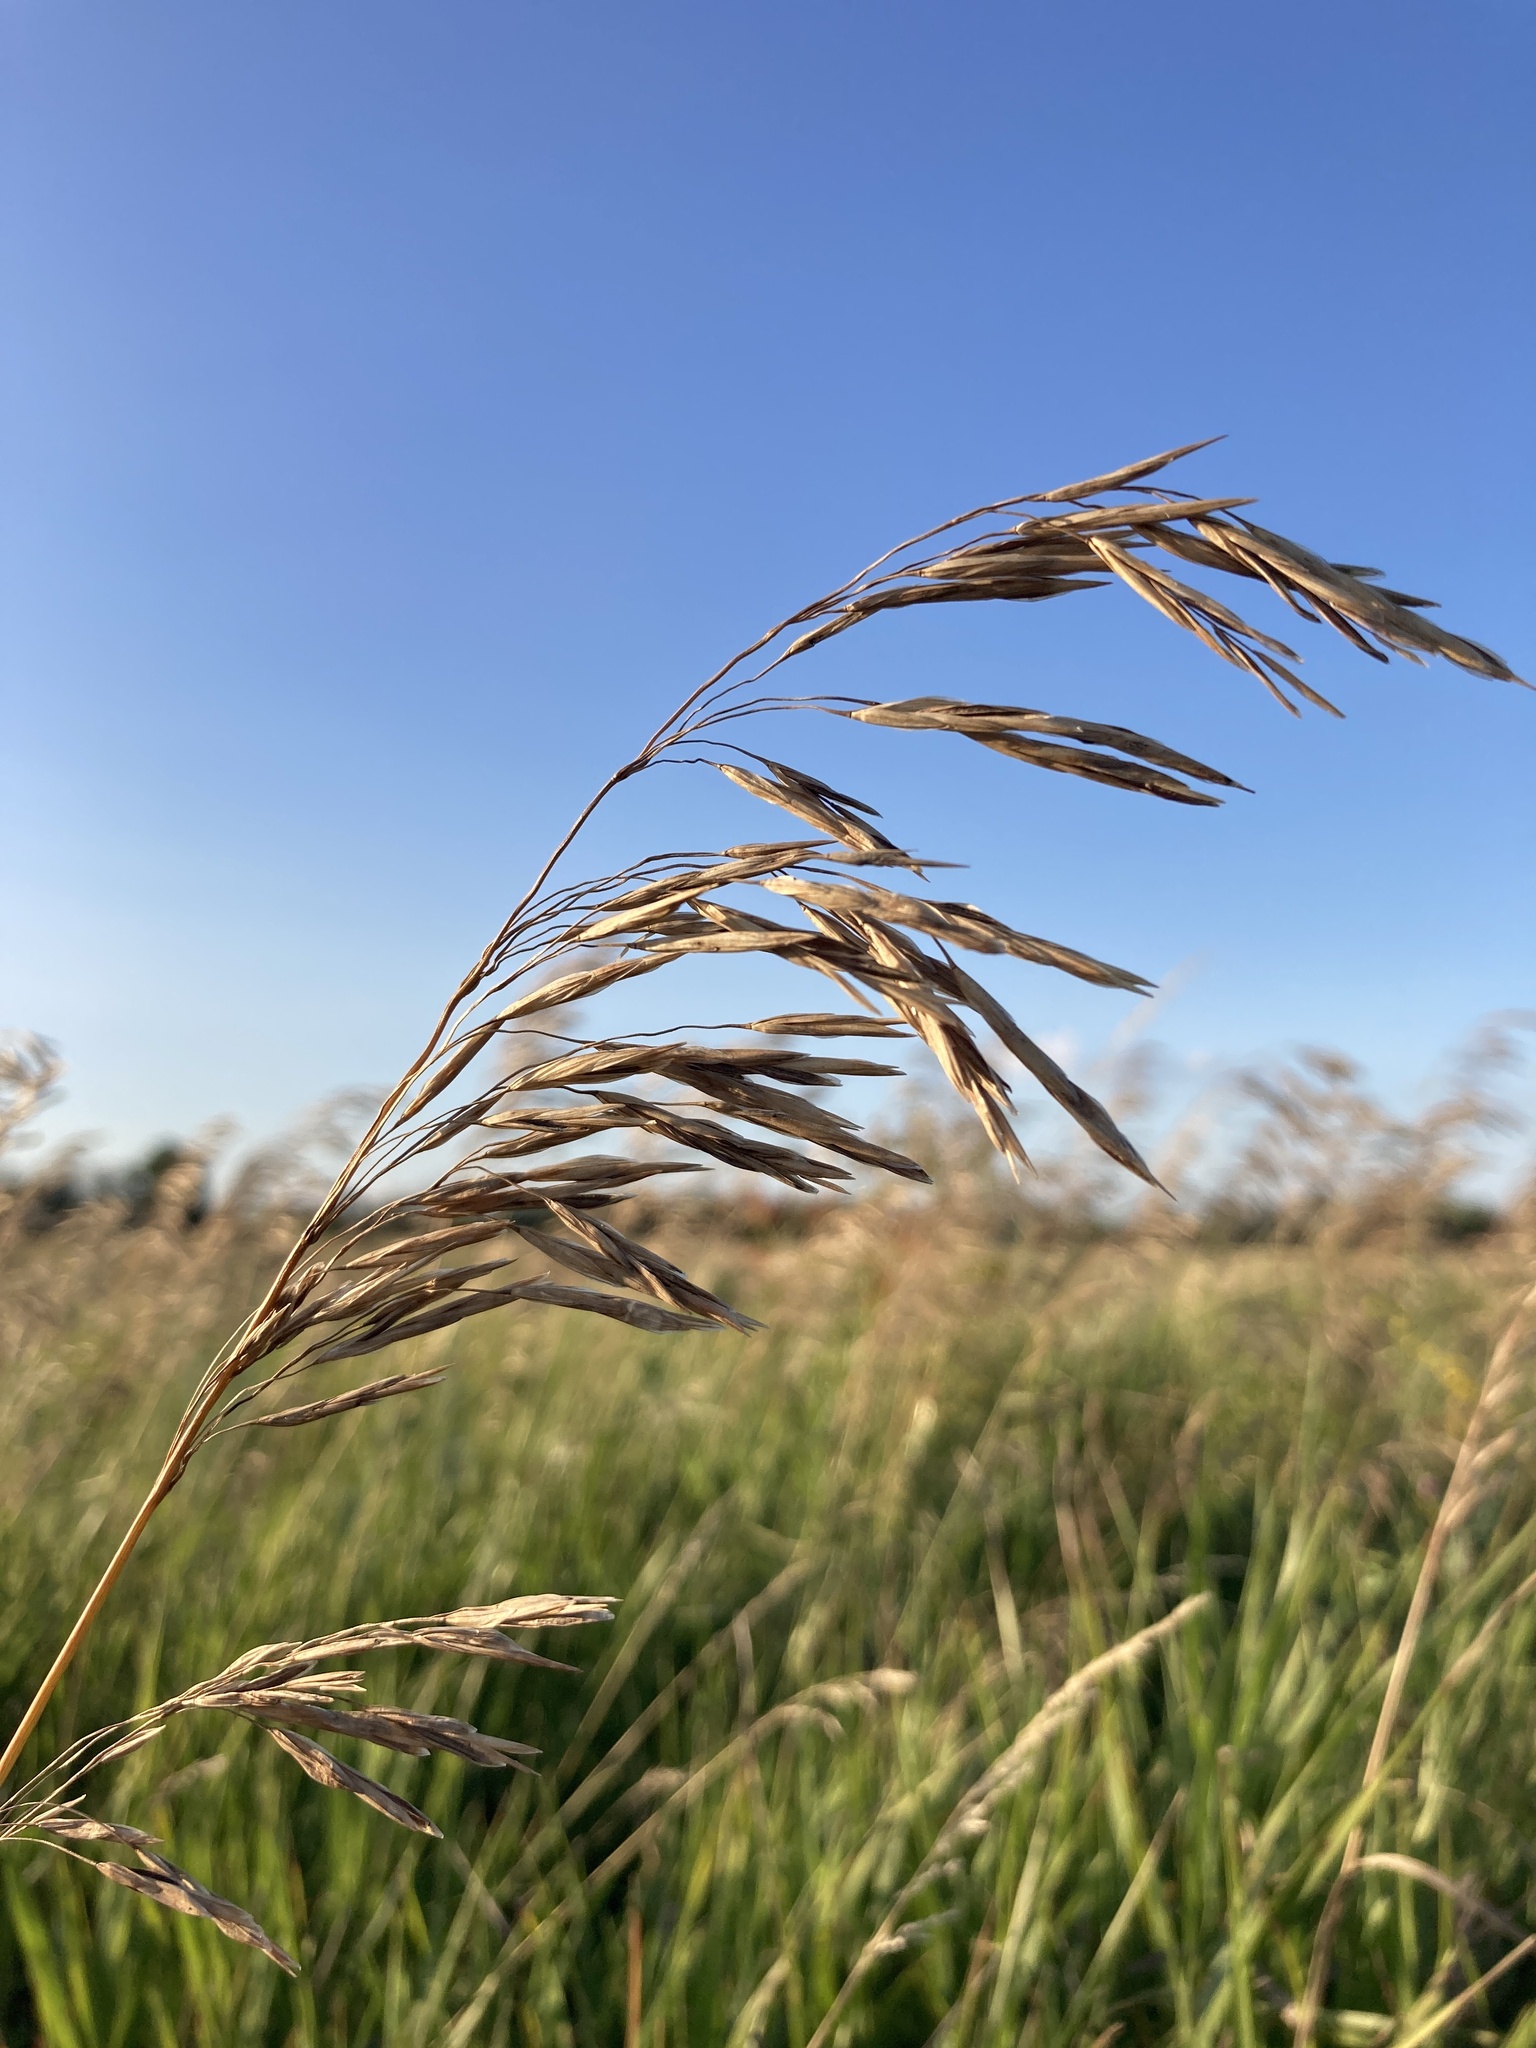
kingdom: Plantae
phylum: Tracheophyta
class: Liliopsida
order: Poales
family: Poaceae
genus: Bromus
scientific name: Bromus inermis
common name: Smooth brome
